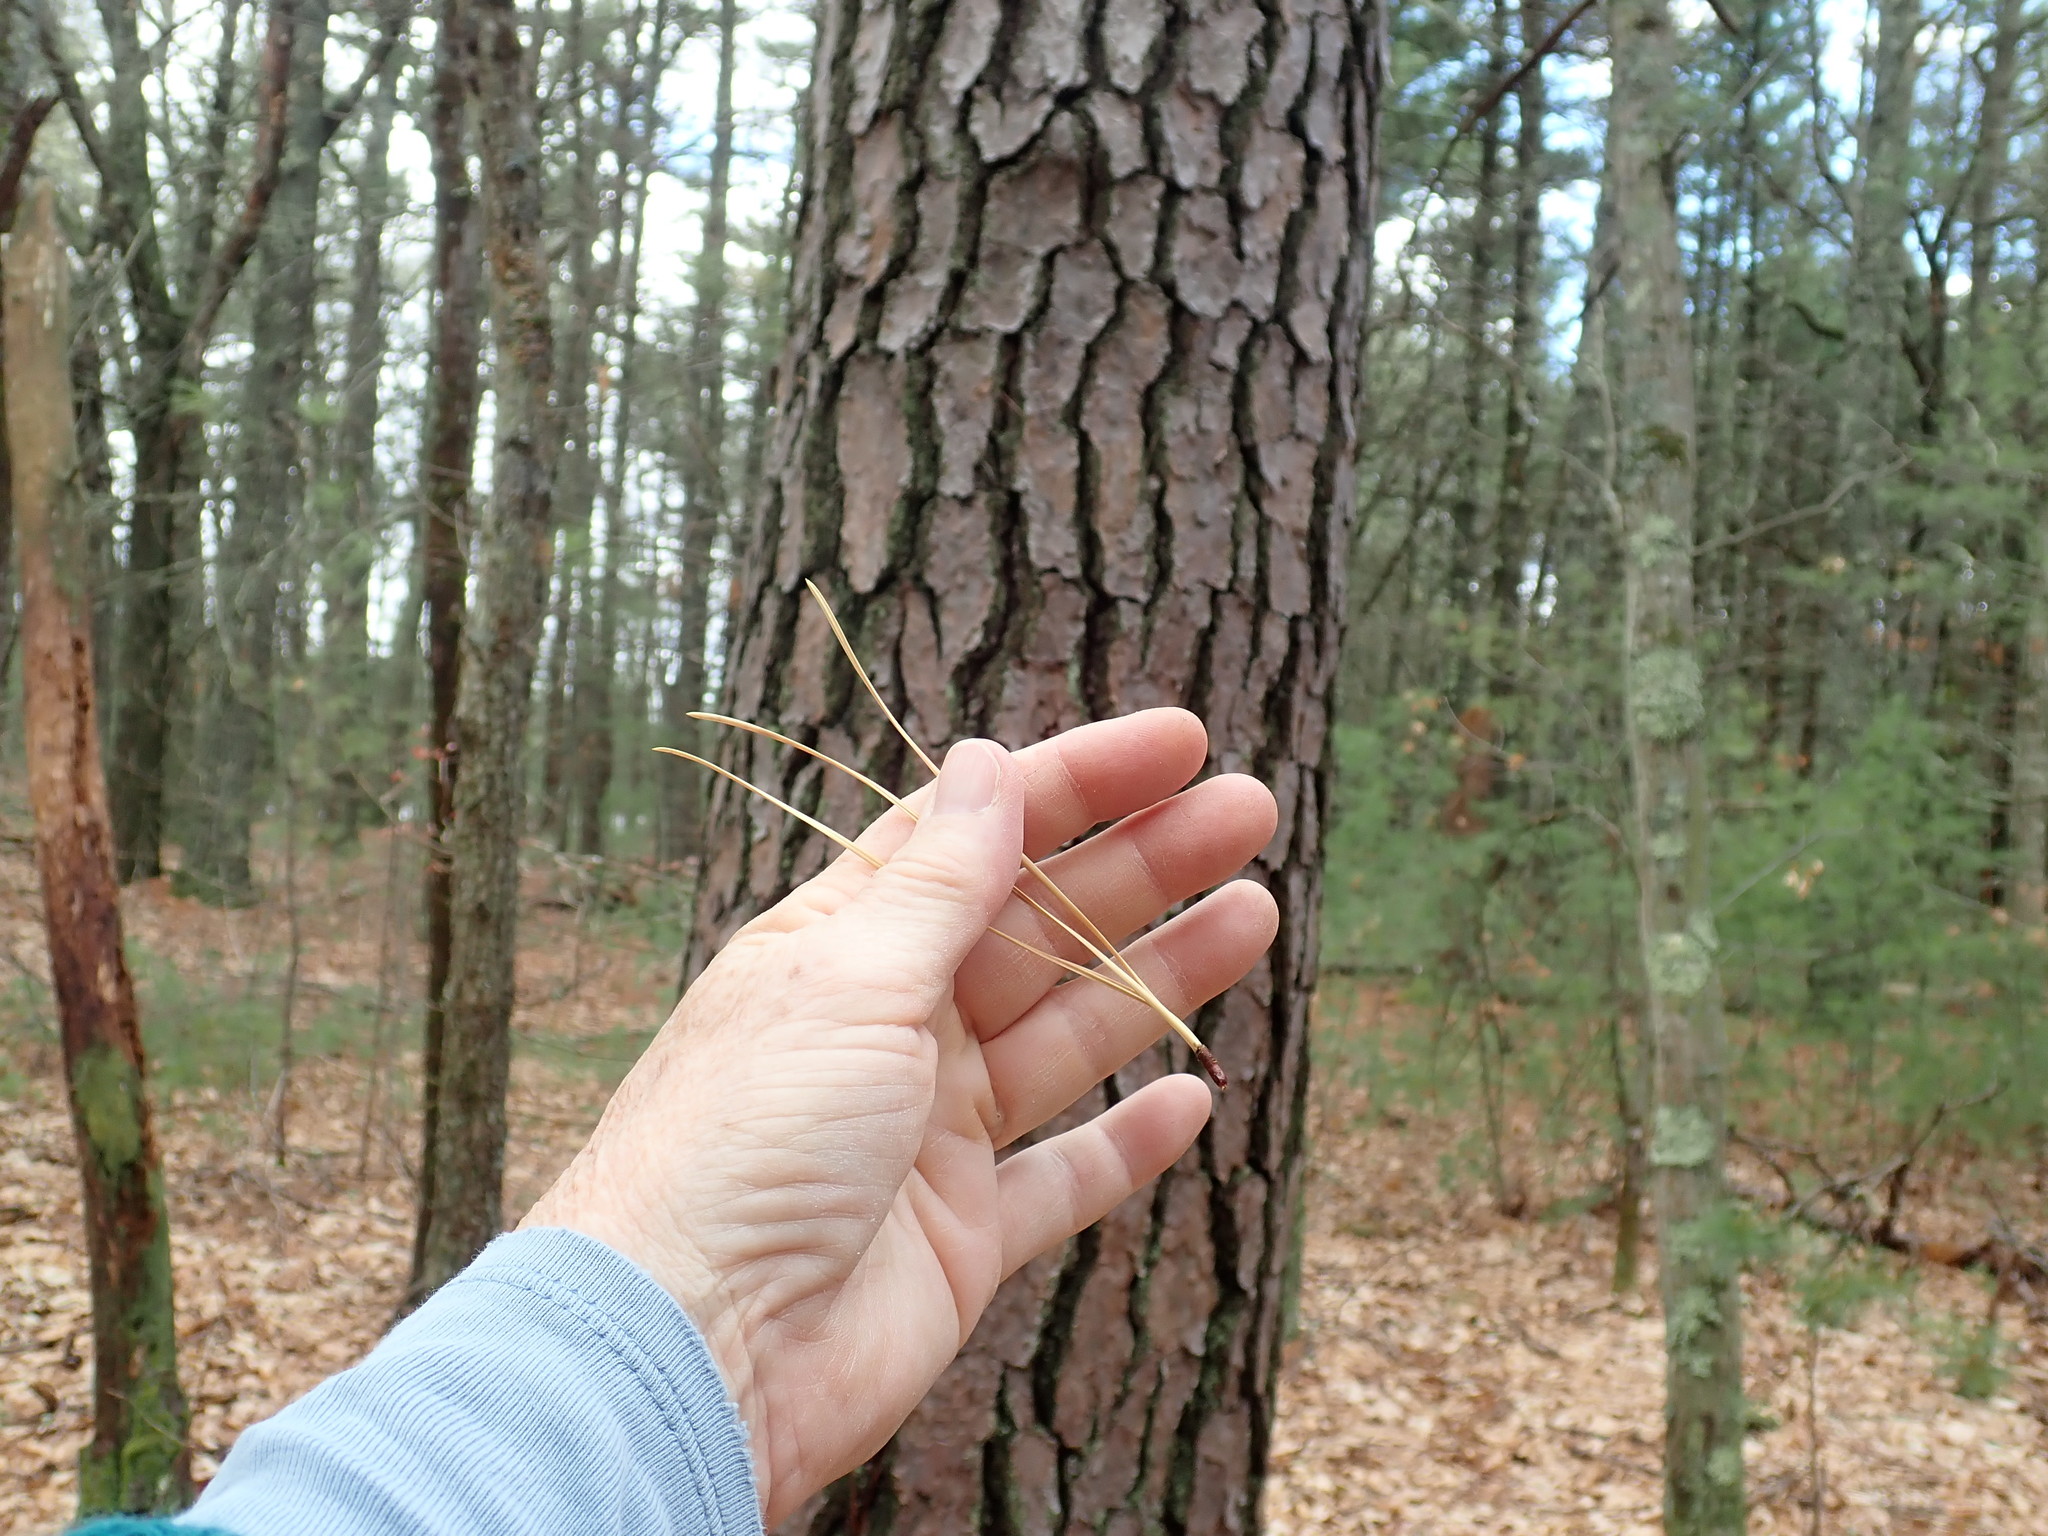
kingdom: Plantae
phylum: Tracheophyta
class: Pinopsida
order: Pinales
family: Pinaceae
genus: Pinus
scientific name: Pinus rigida
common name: Pitch pine
